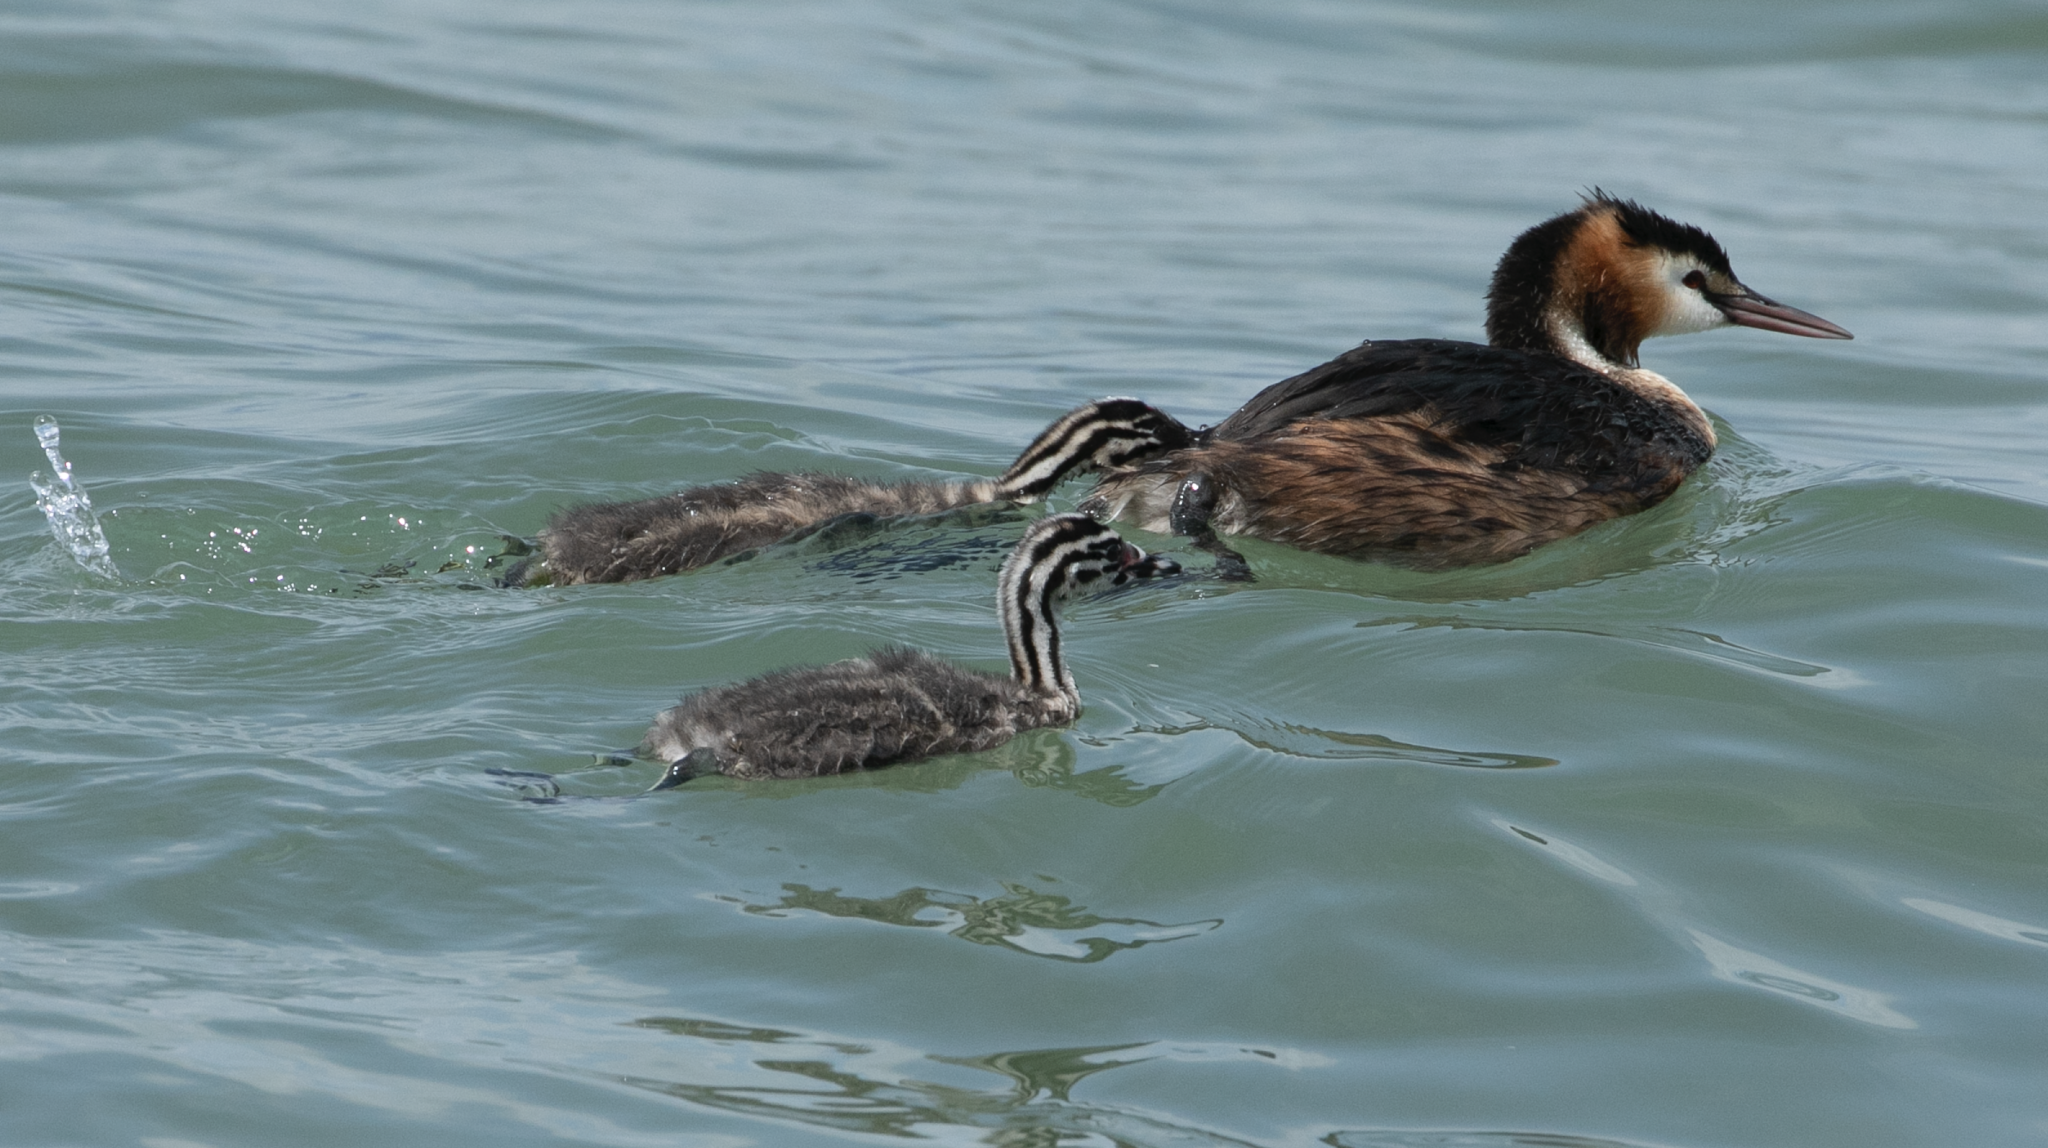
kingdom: Animalia
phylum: Chordata
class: Aves
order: Podicipediformes
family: Podicipedidae
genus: Podiceps
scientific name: Podiceps cristatus
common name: Great crested grebe
